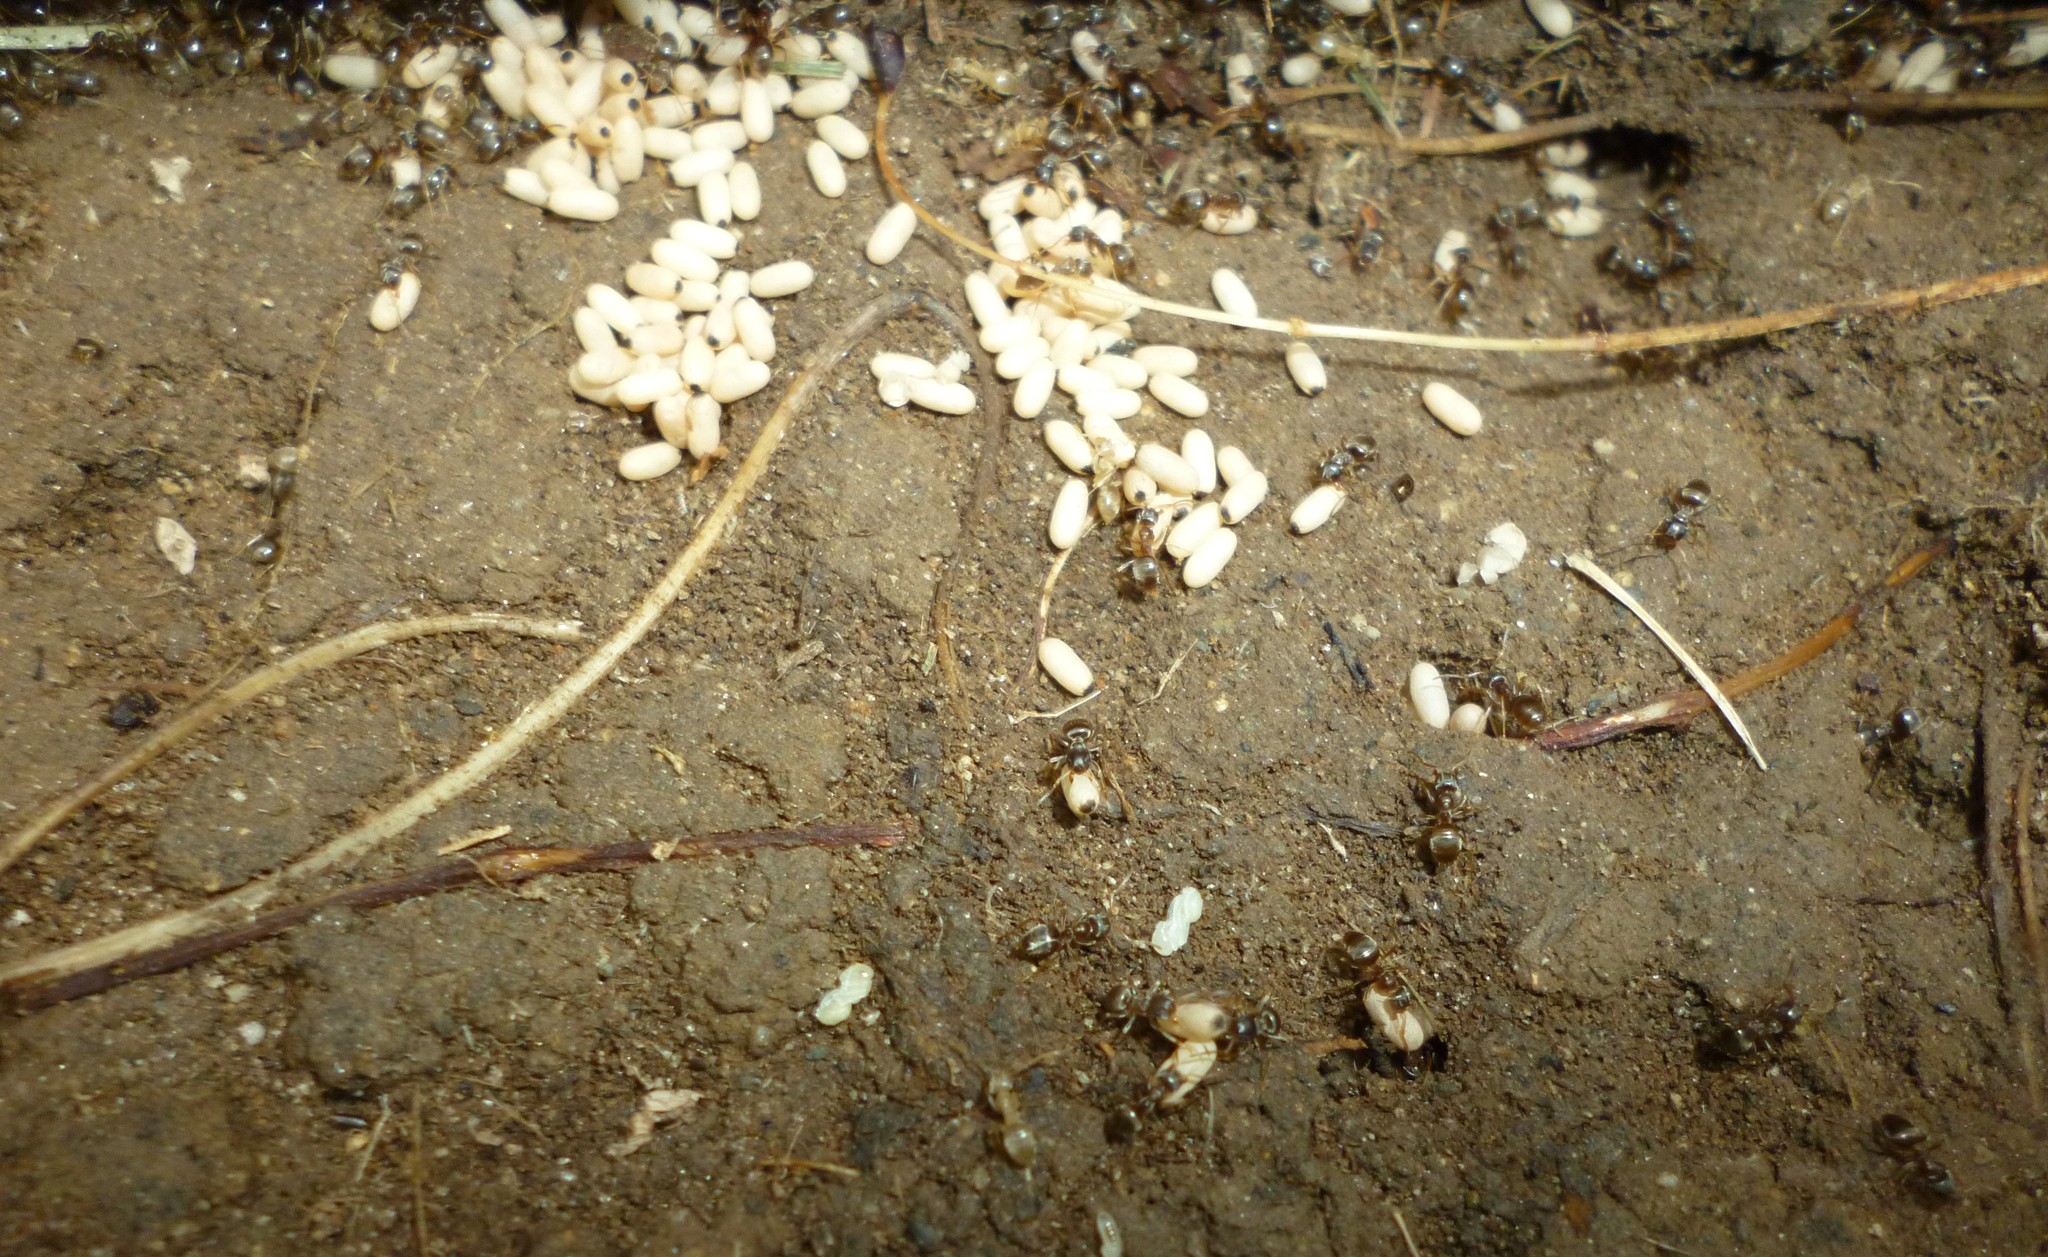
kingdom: Animalia
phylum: Arthropoda
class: Insecta
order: Hymenoptera
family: Formicidae
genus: Lasius
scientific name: Lasius
